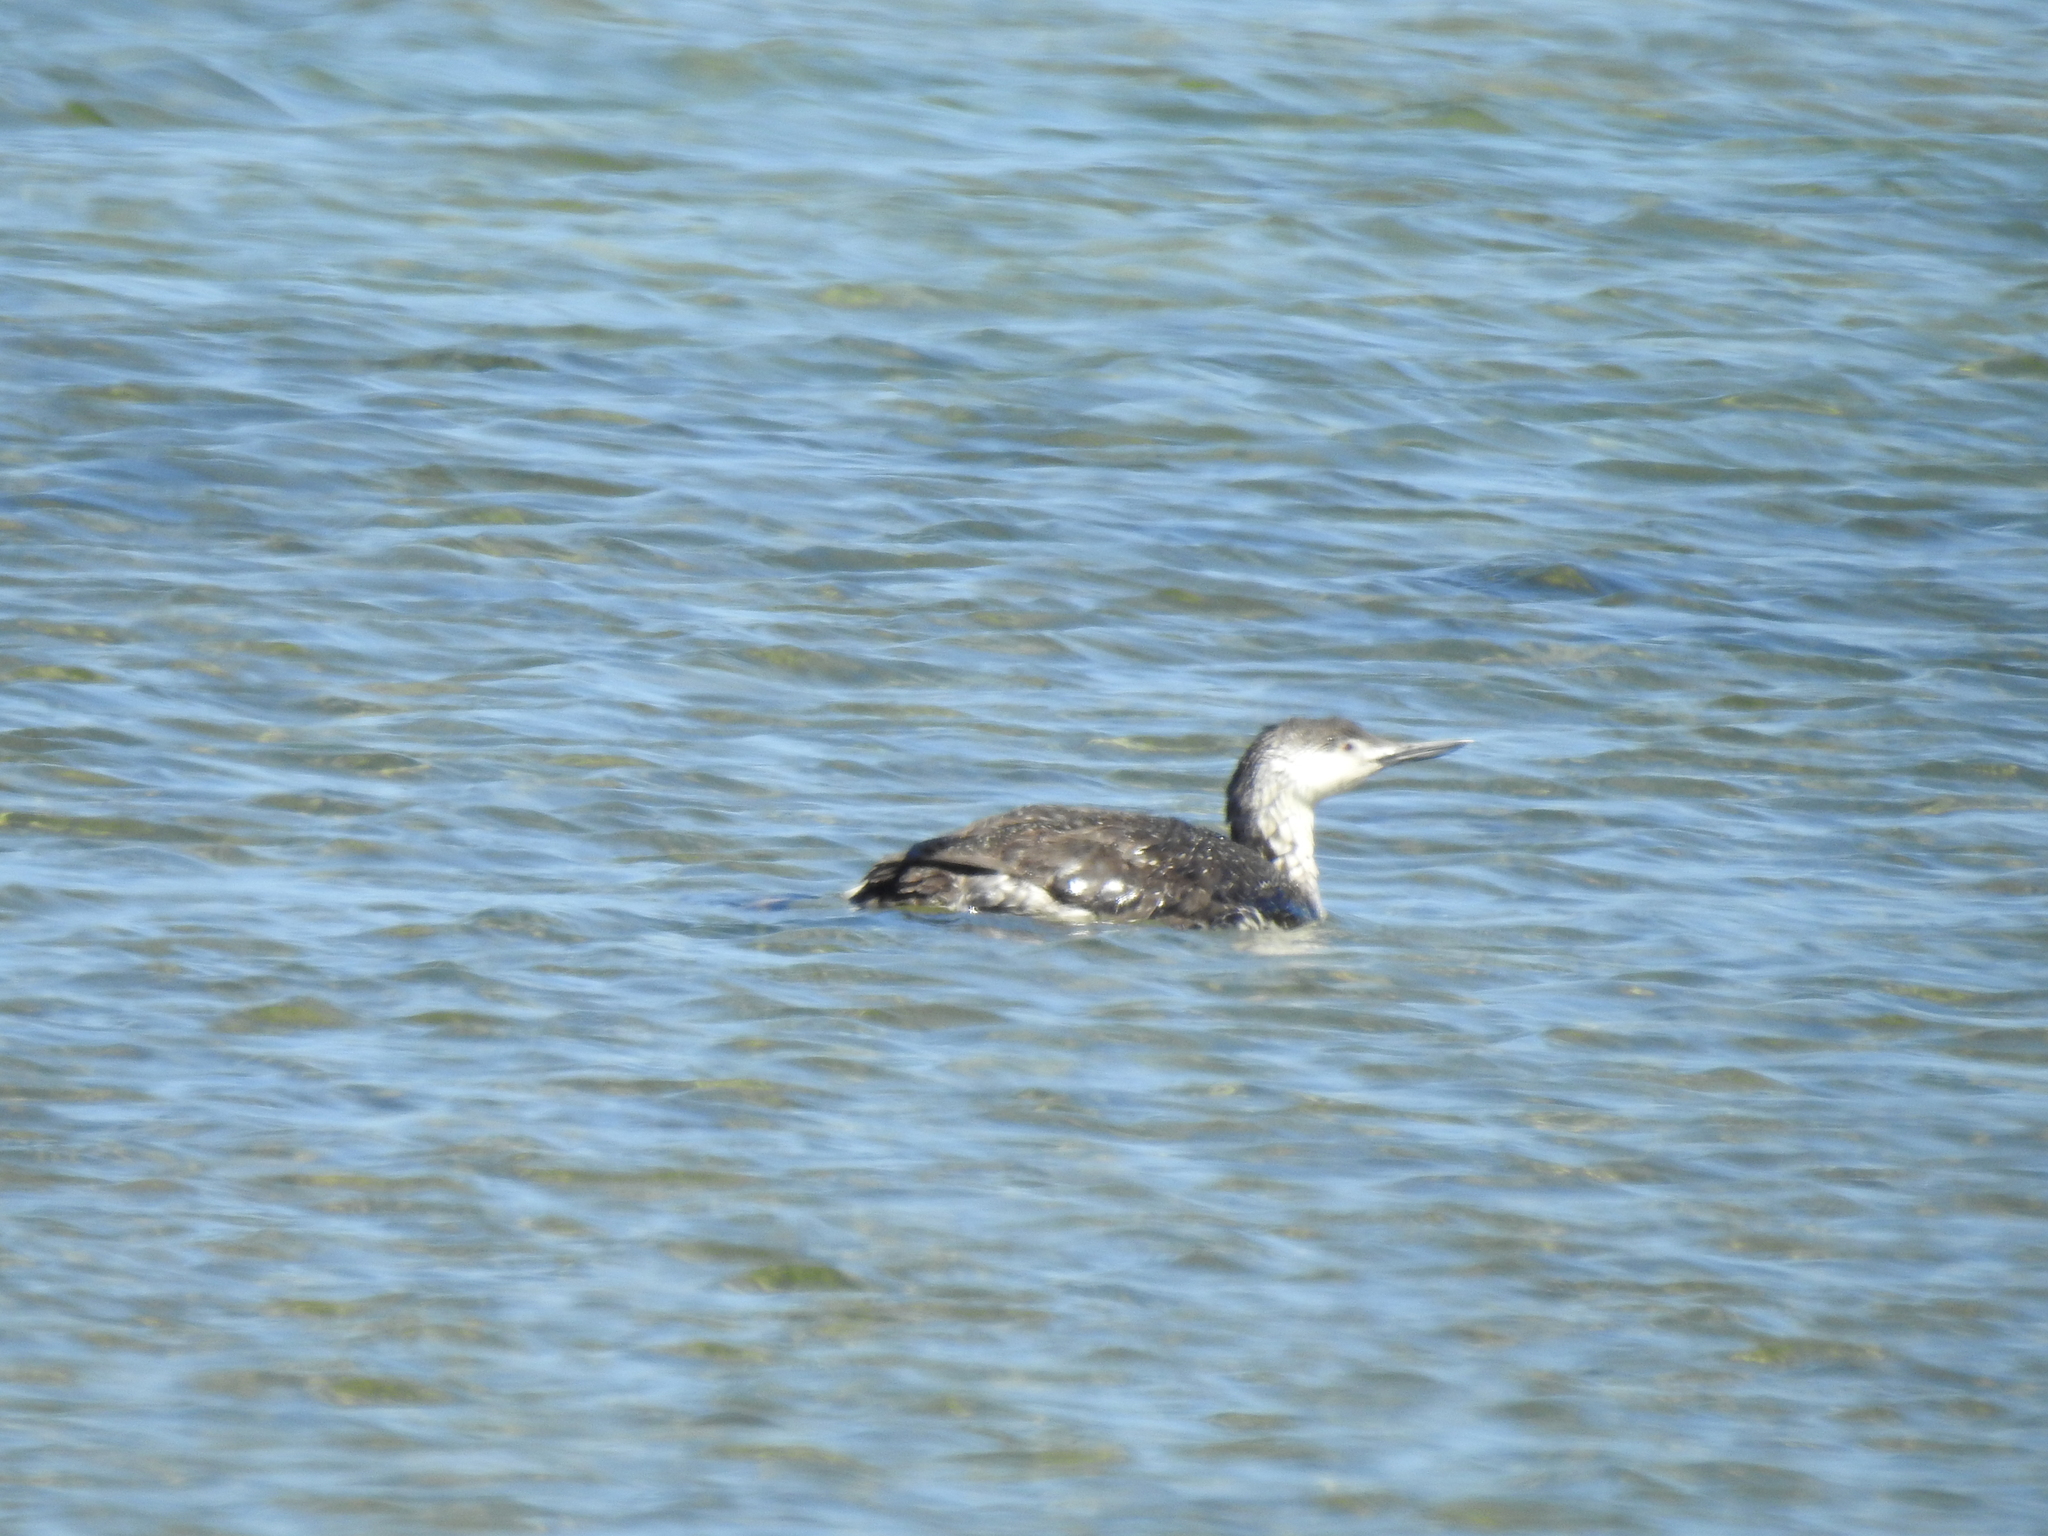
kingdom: Animalia
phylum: Chordata
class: Aves
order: Gaviiformes
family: Gaviidae
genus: Gavia
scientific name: Gavia stellata
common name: Red-throated loon
